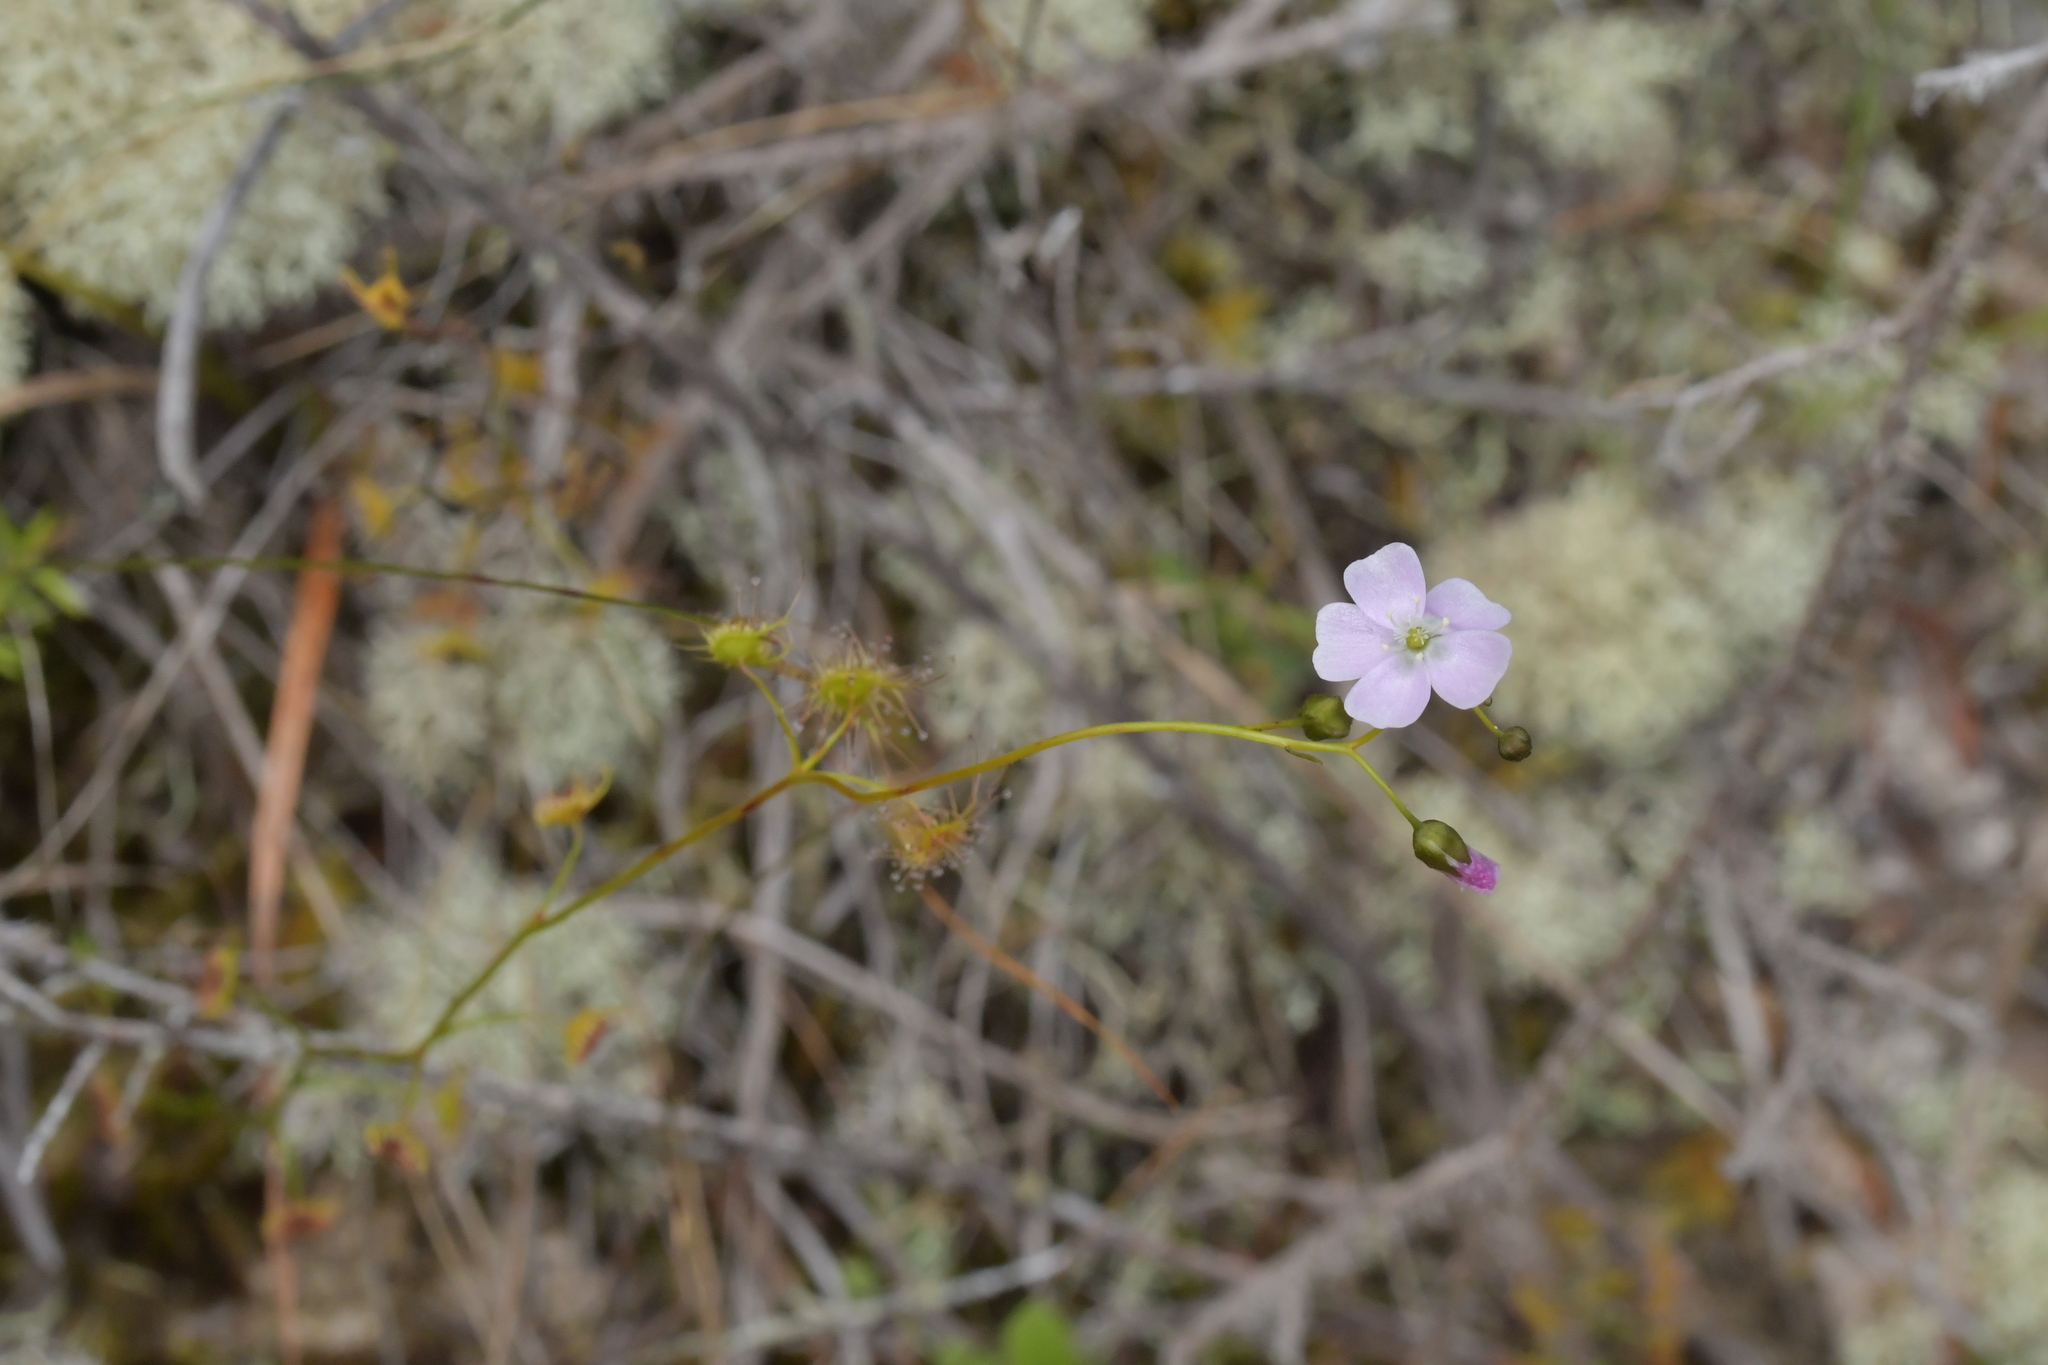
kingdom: Plantae
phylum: Tracheophyta
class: Magnoliopsida
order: Caryophyllales
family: Droseraceae
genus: Drosera
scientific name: Drosera peltata
